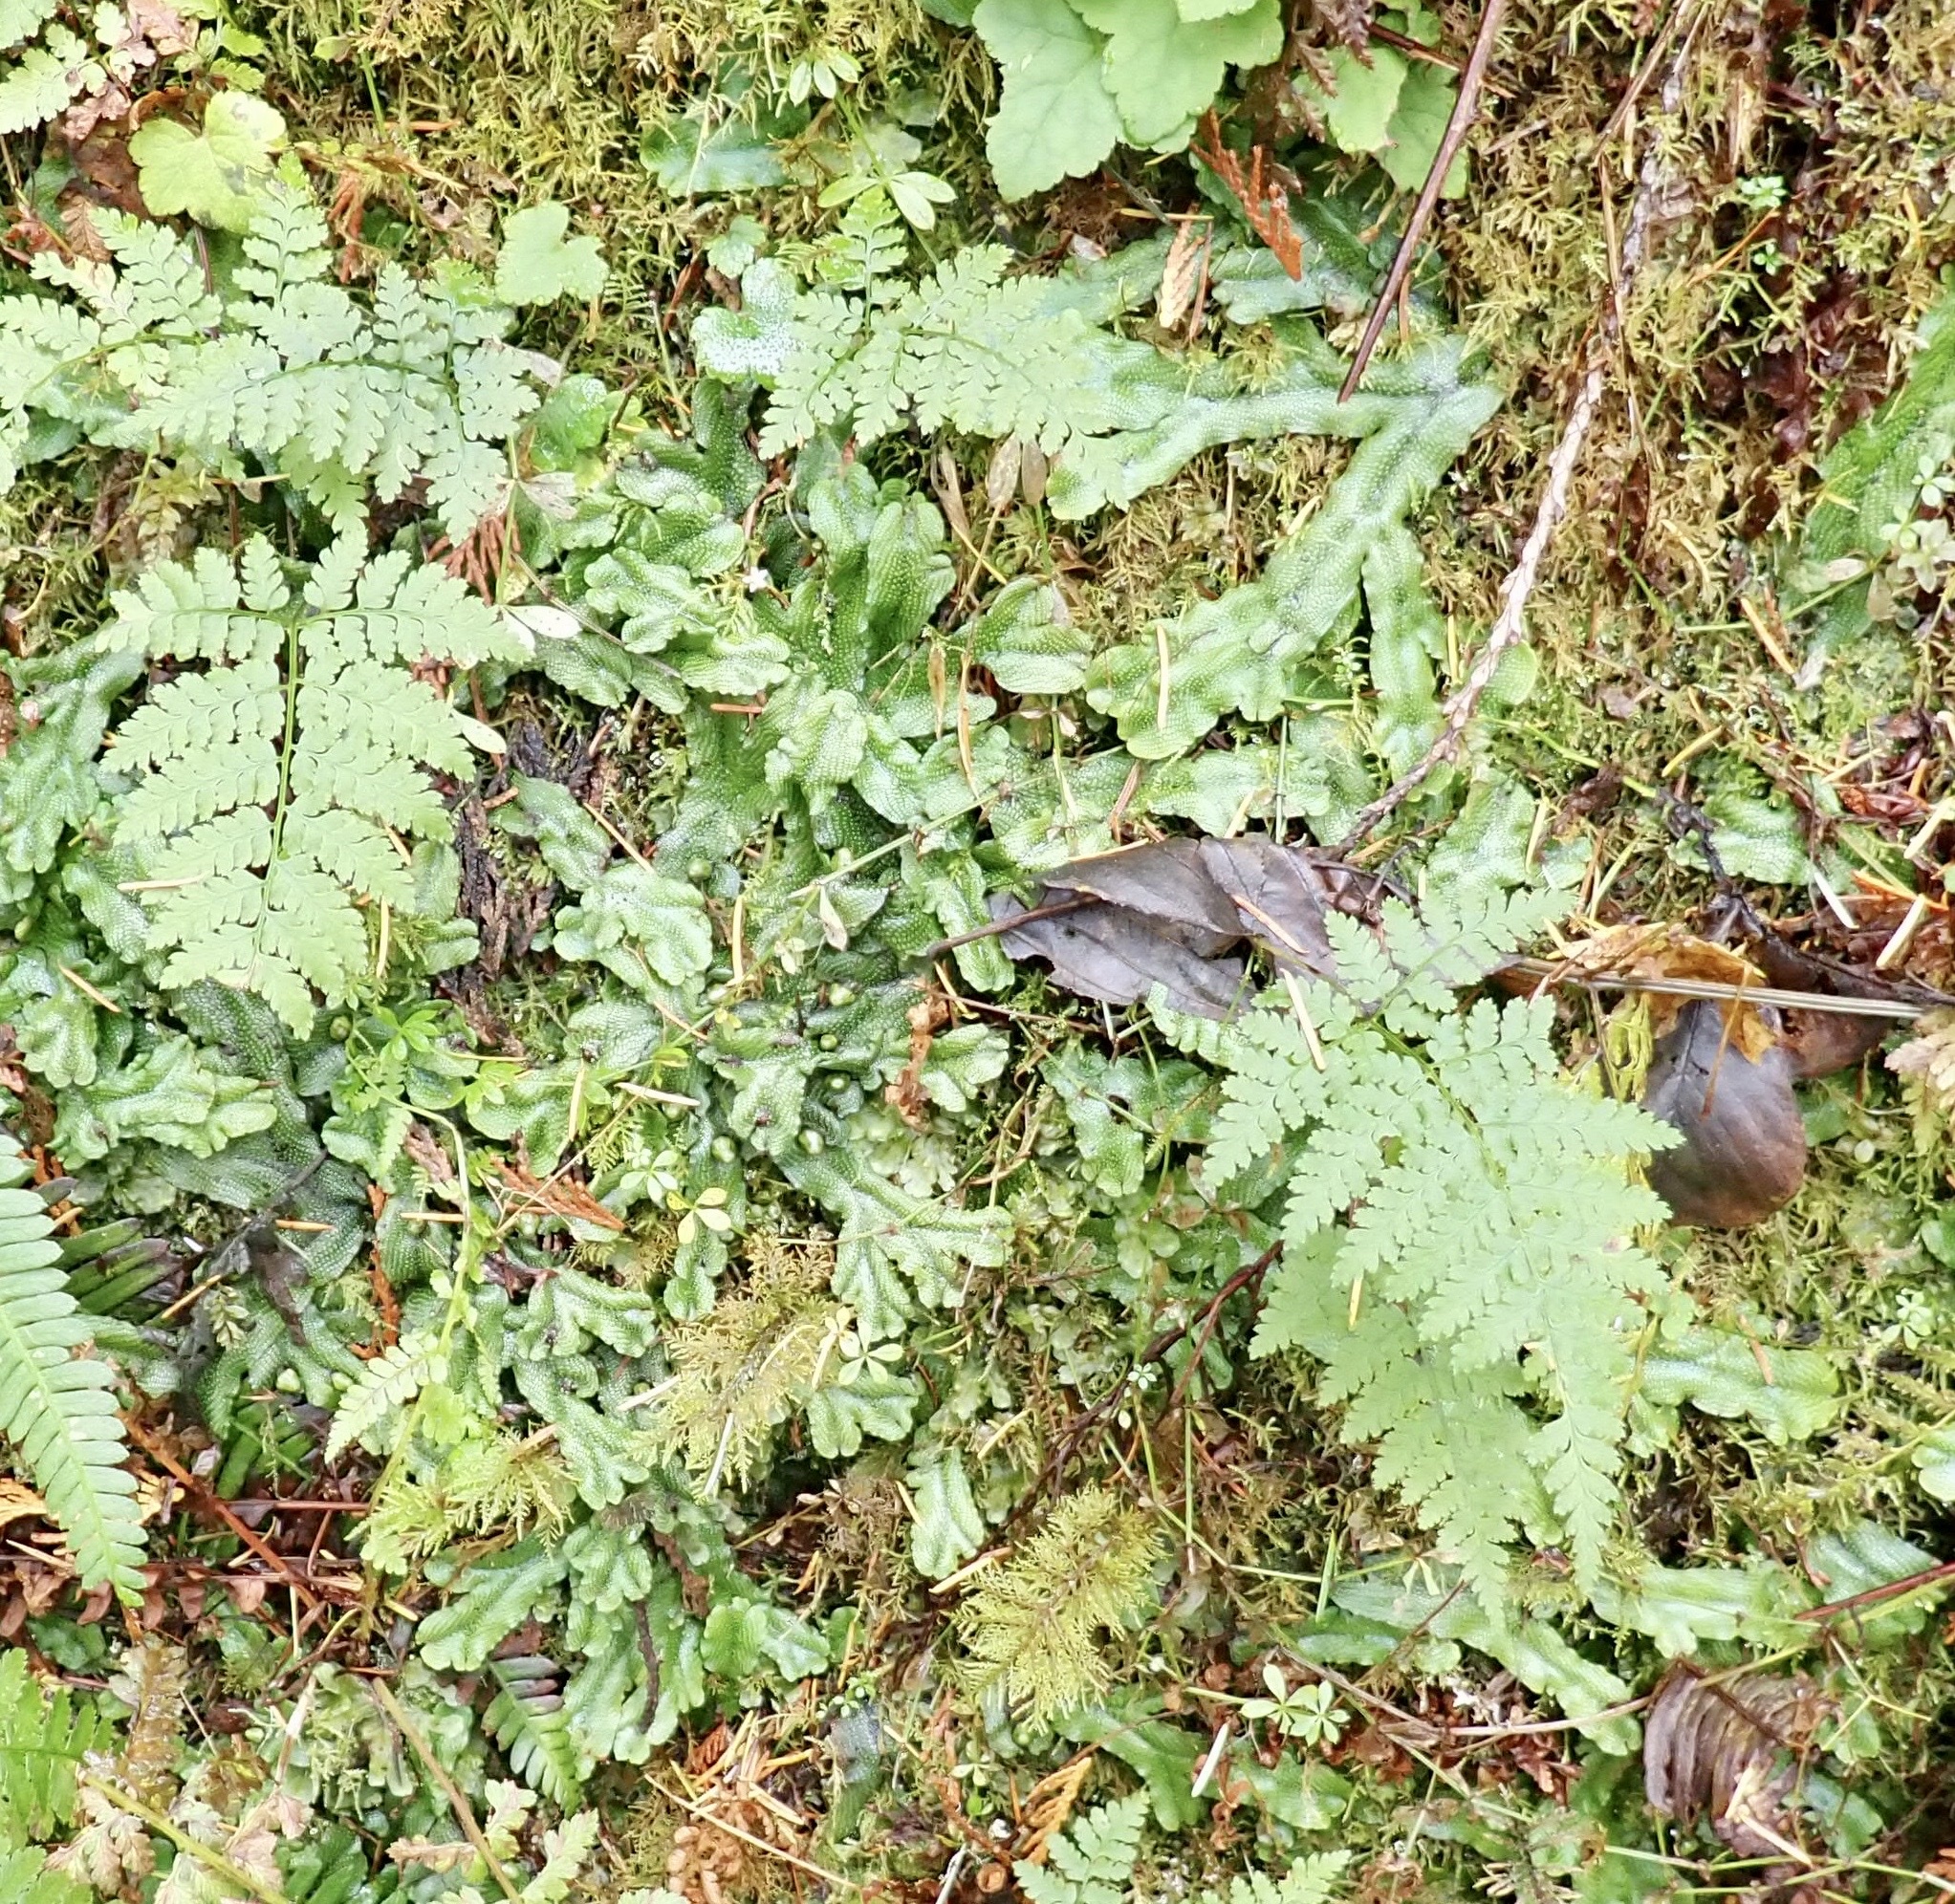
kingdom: Plantae
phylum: Marchantiophyta
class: Marchantiopsida
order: Marchantiales
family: Conocephalaceae
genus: Conocephalum
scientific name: Conocephalum salebrosum
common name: Cat-tongue liverwort
